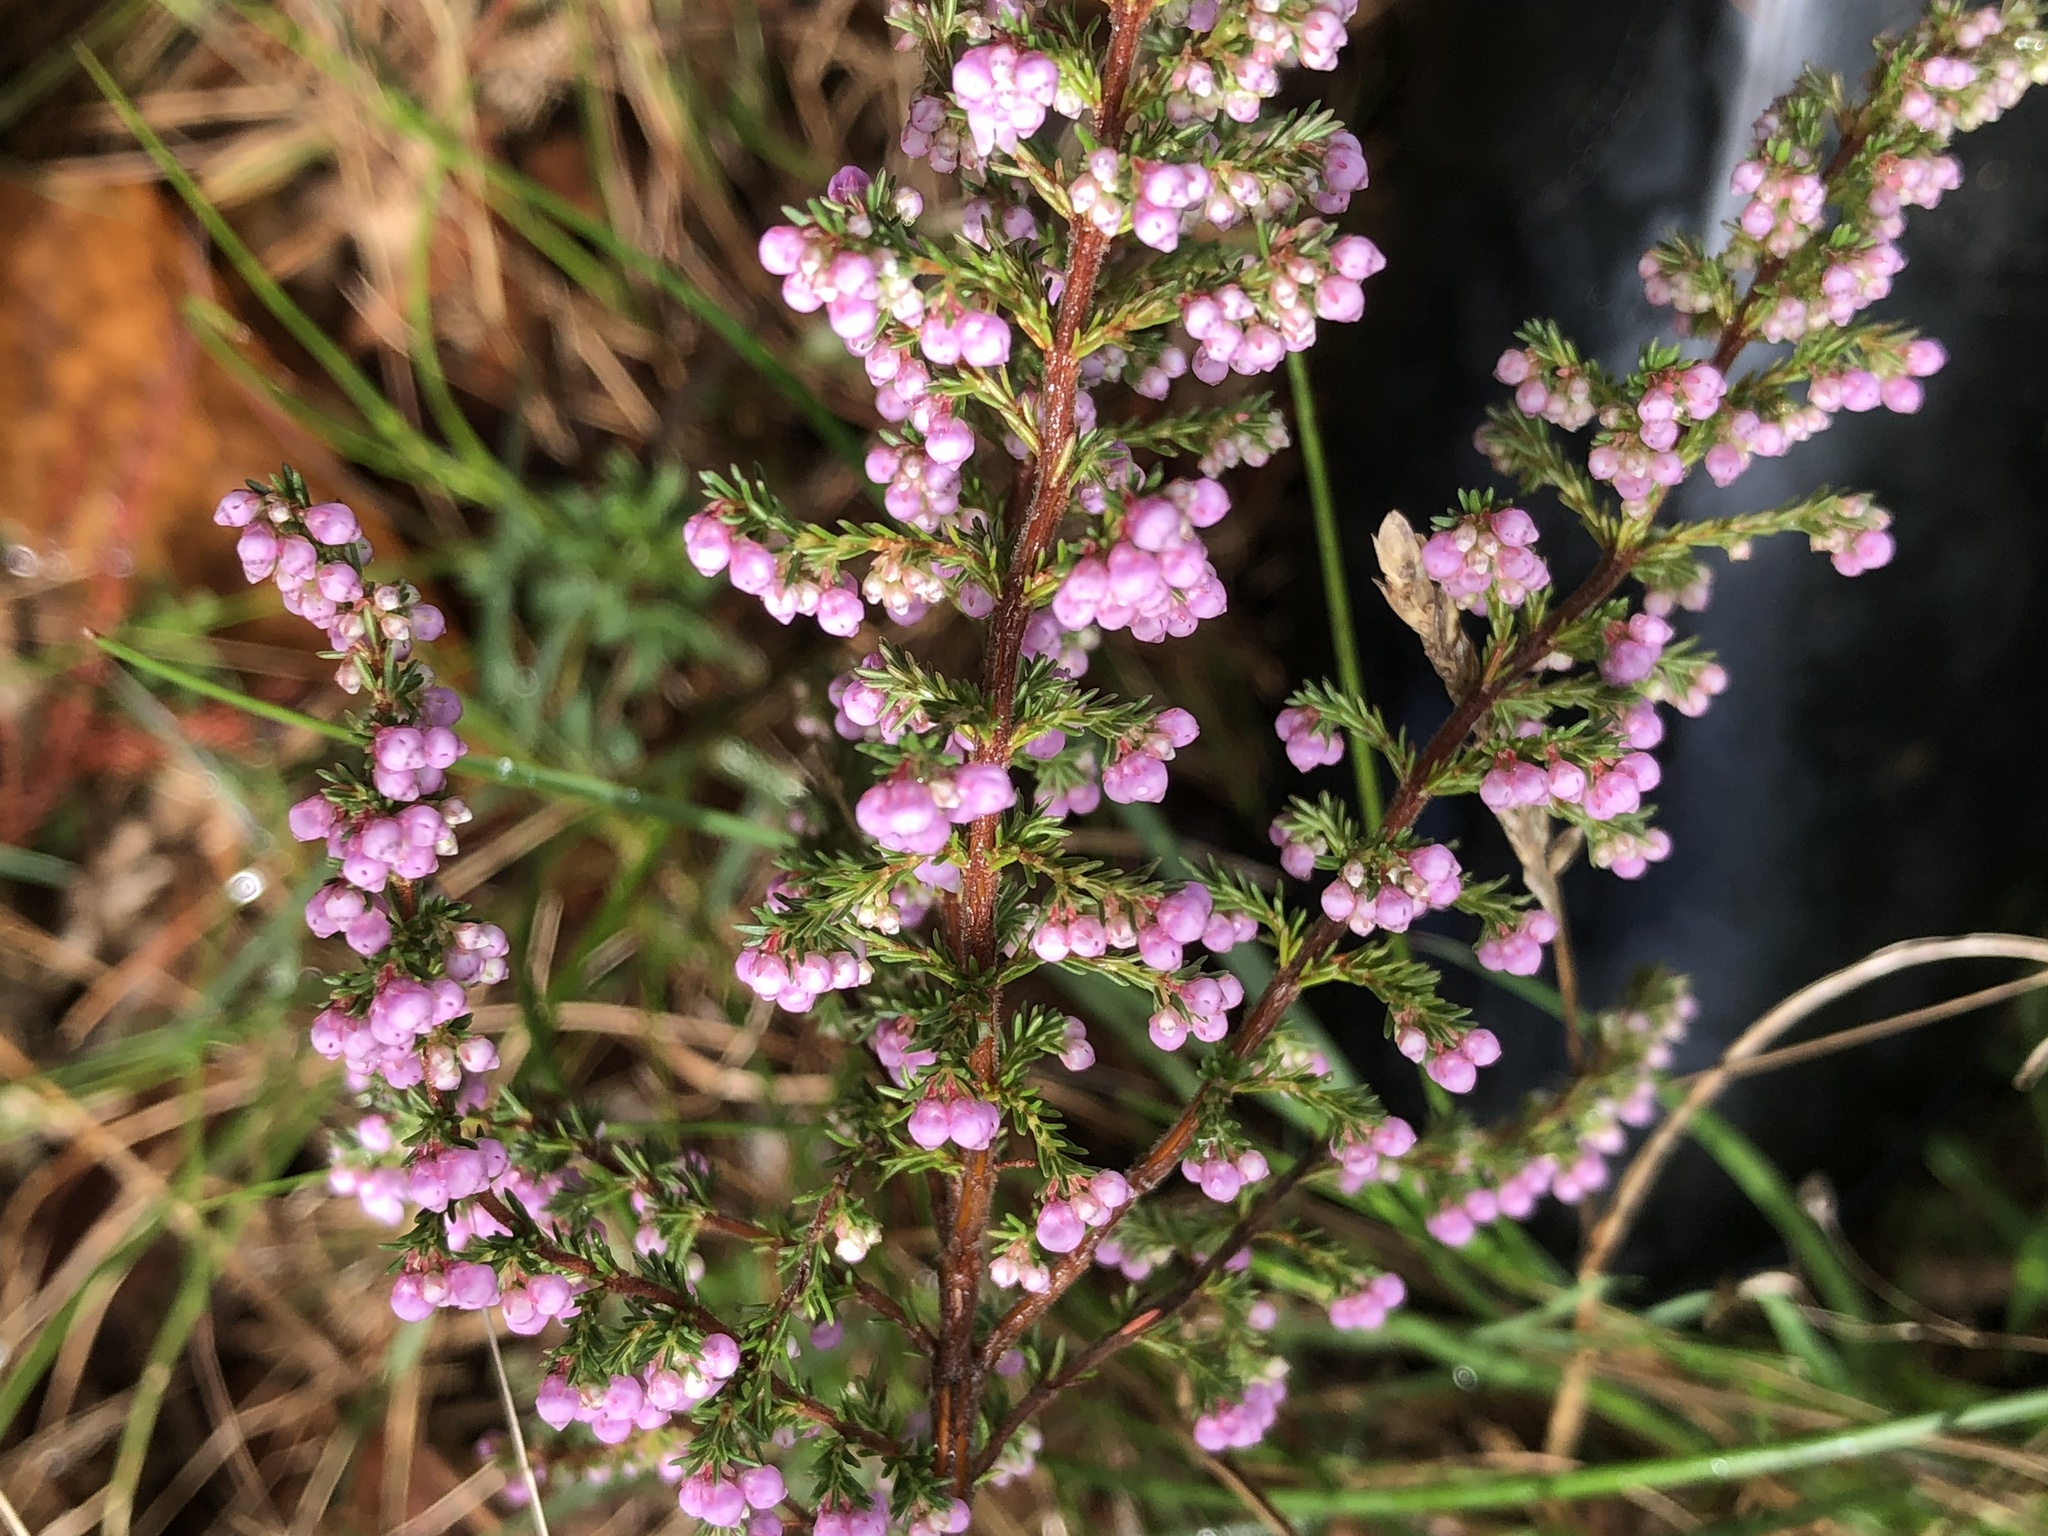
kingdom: Plantae
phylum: Tracheophyta
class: Magnoliopsida
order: Ericales
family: Ericaceae
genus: Erica
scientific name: Erica mauritanica
